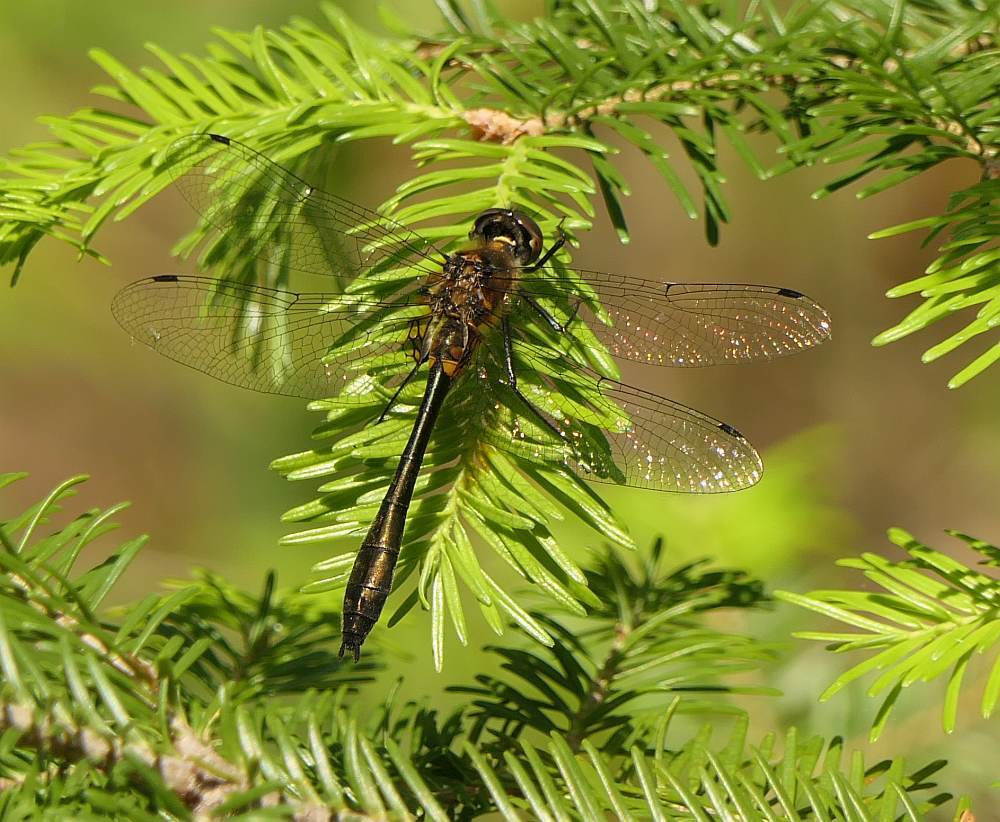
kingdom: Animalia
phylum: Arthropoda
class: Insecta
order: Odonata
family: Corduliidae
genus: Dorocordulia
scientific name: Dorocordulia libera
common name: Racket-tailed emerald
